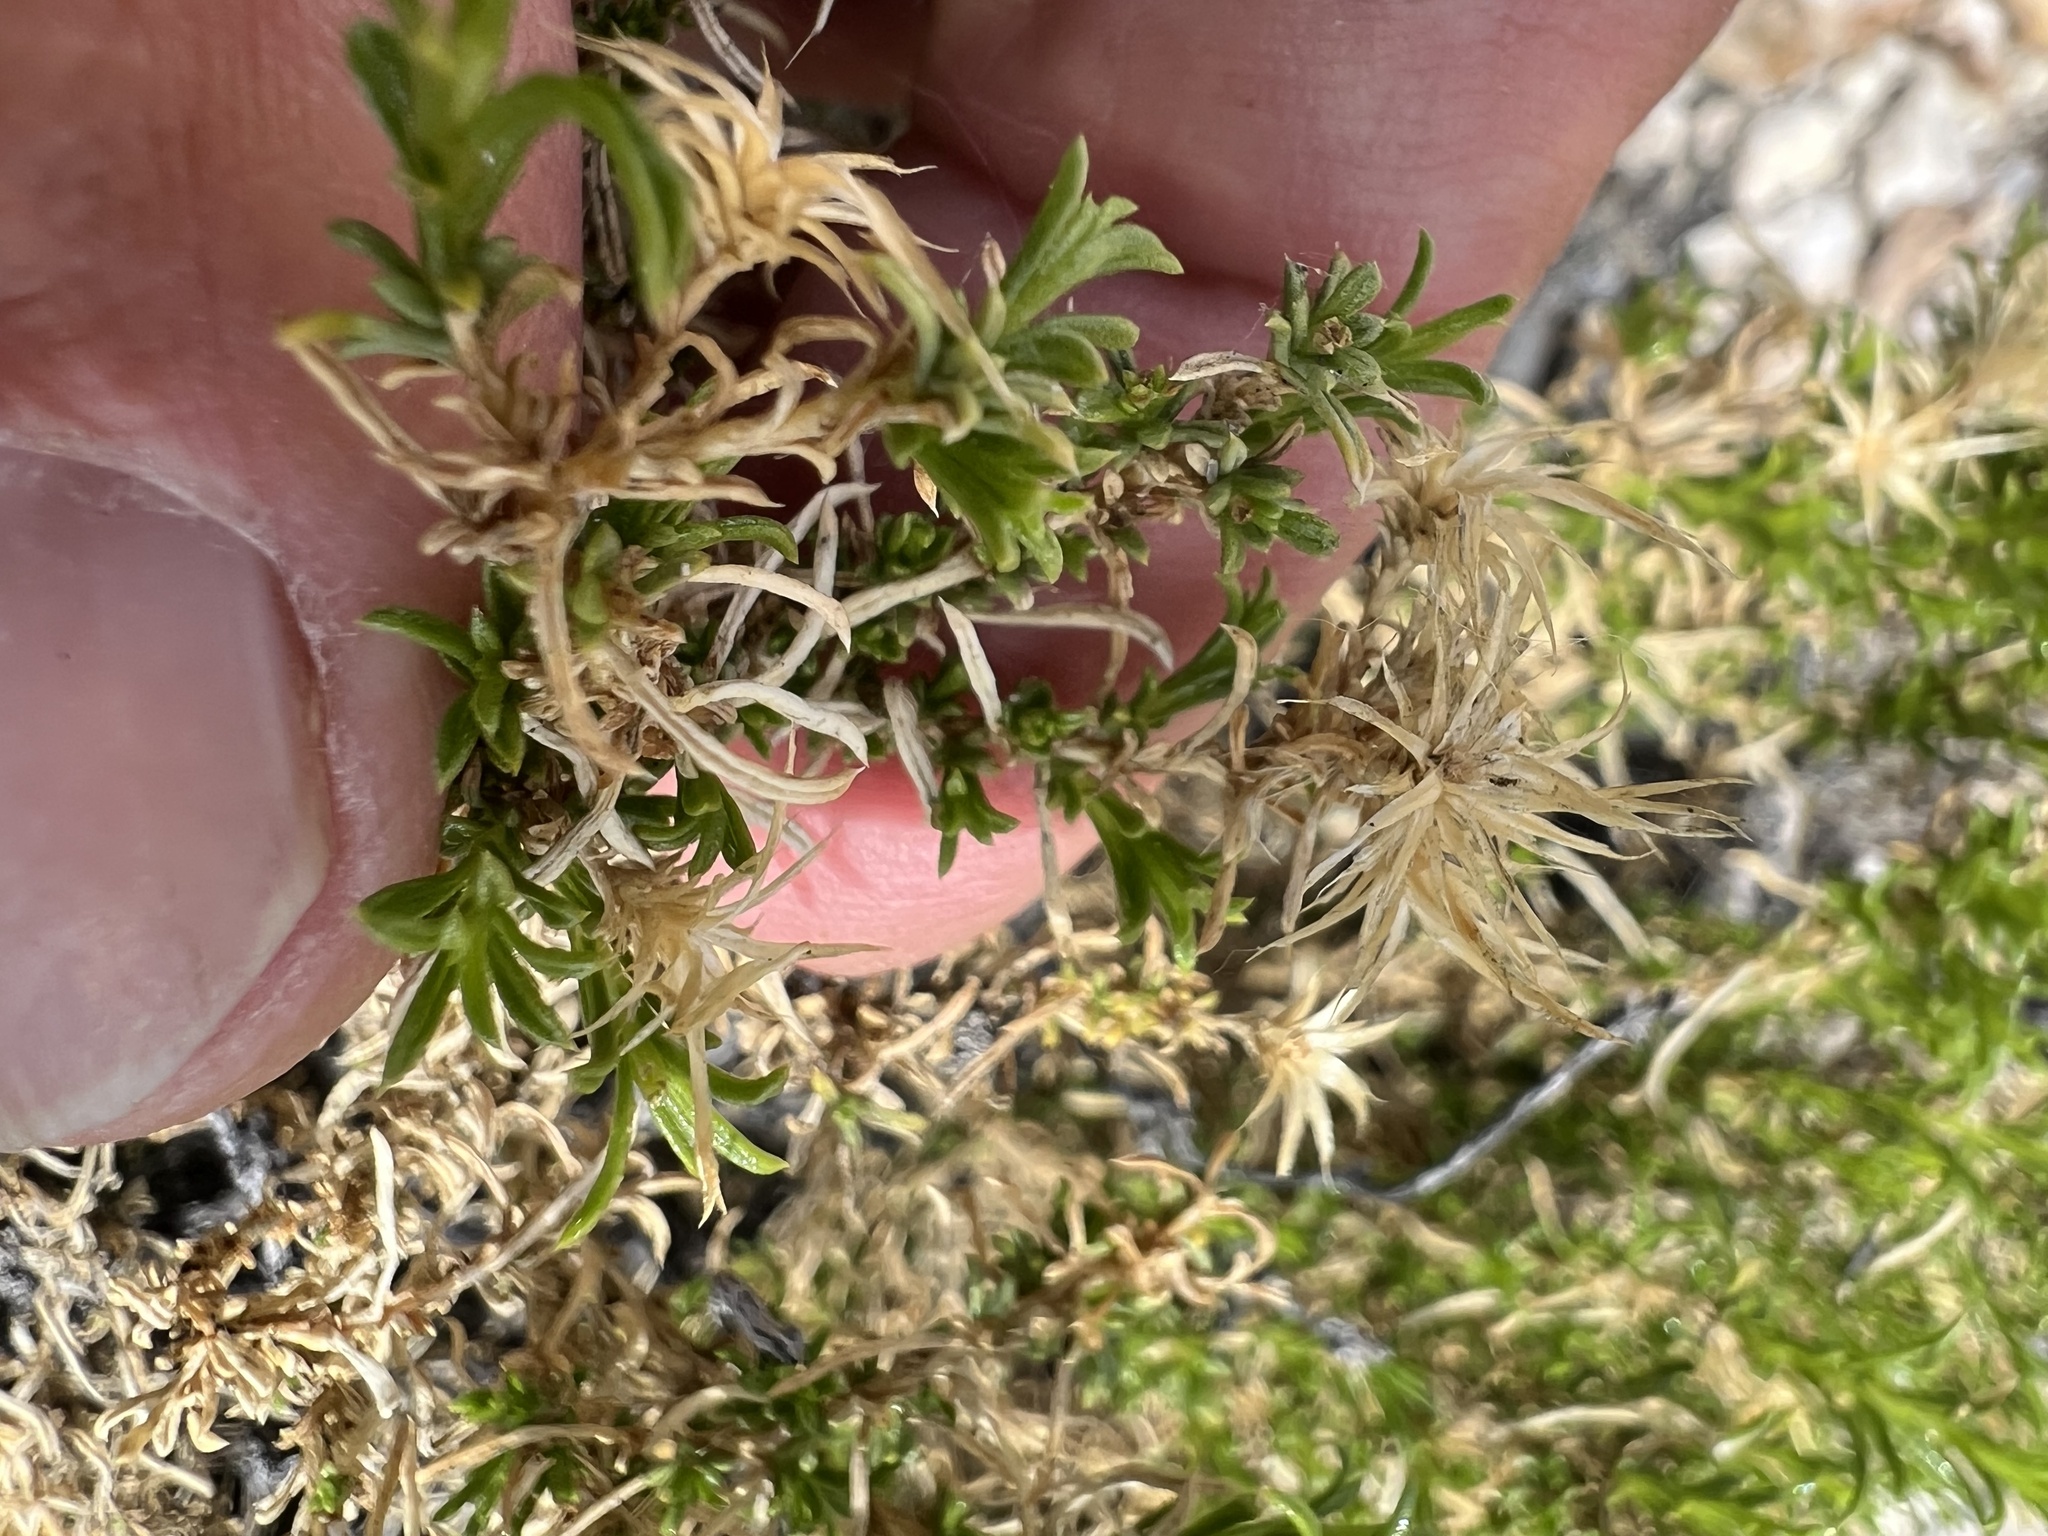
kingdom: Plantae
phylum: Tracheophyta
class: Magnoliopsida
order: Asterales
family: Asteraceae
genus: Ericameria
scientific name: Ericameria nana
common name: Dwarf goldenbush
